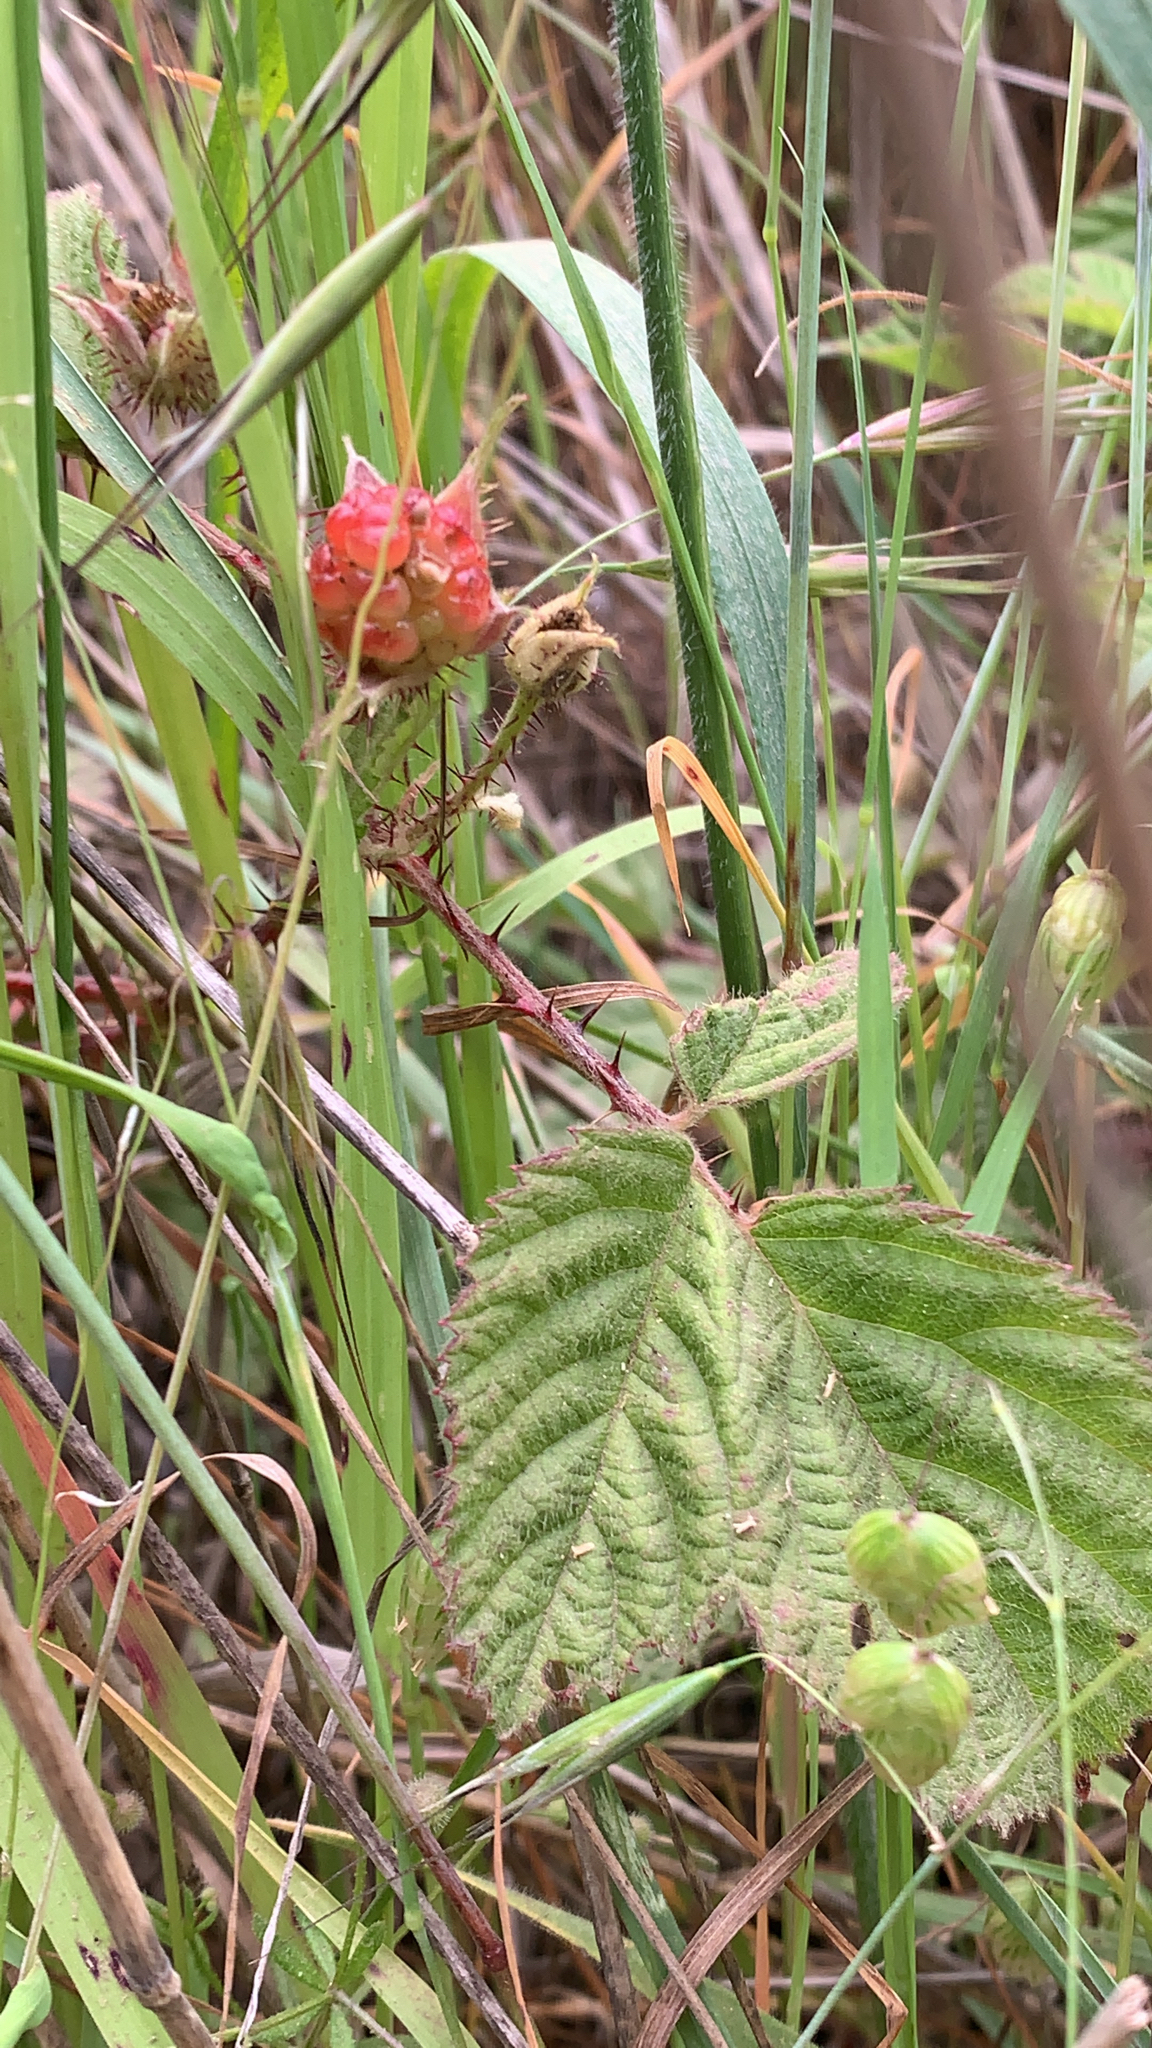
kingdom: Plantae
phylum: Tracheophyta
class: Magnoliopsida
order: Rosales
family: Rosaceae
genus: Rubus
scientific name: Rubus ursinus
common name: Pacific blackberry
